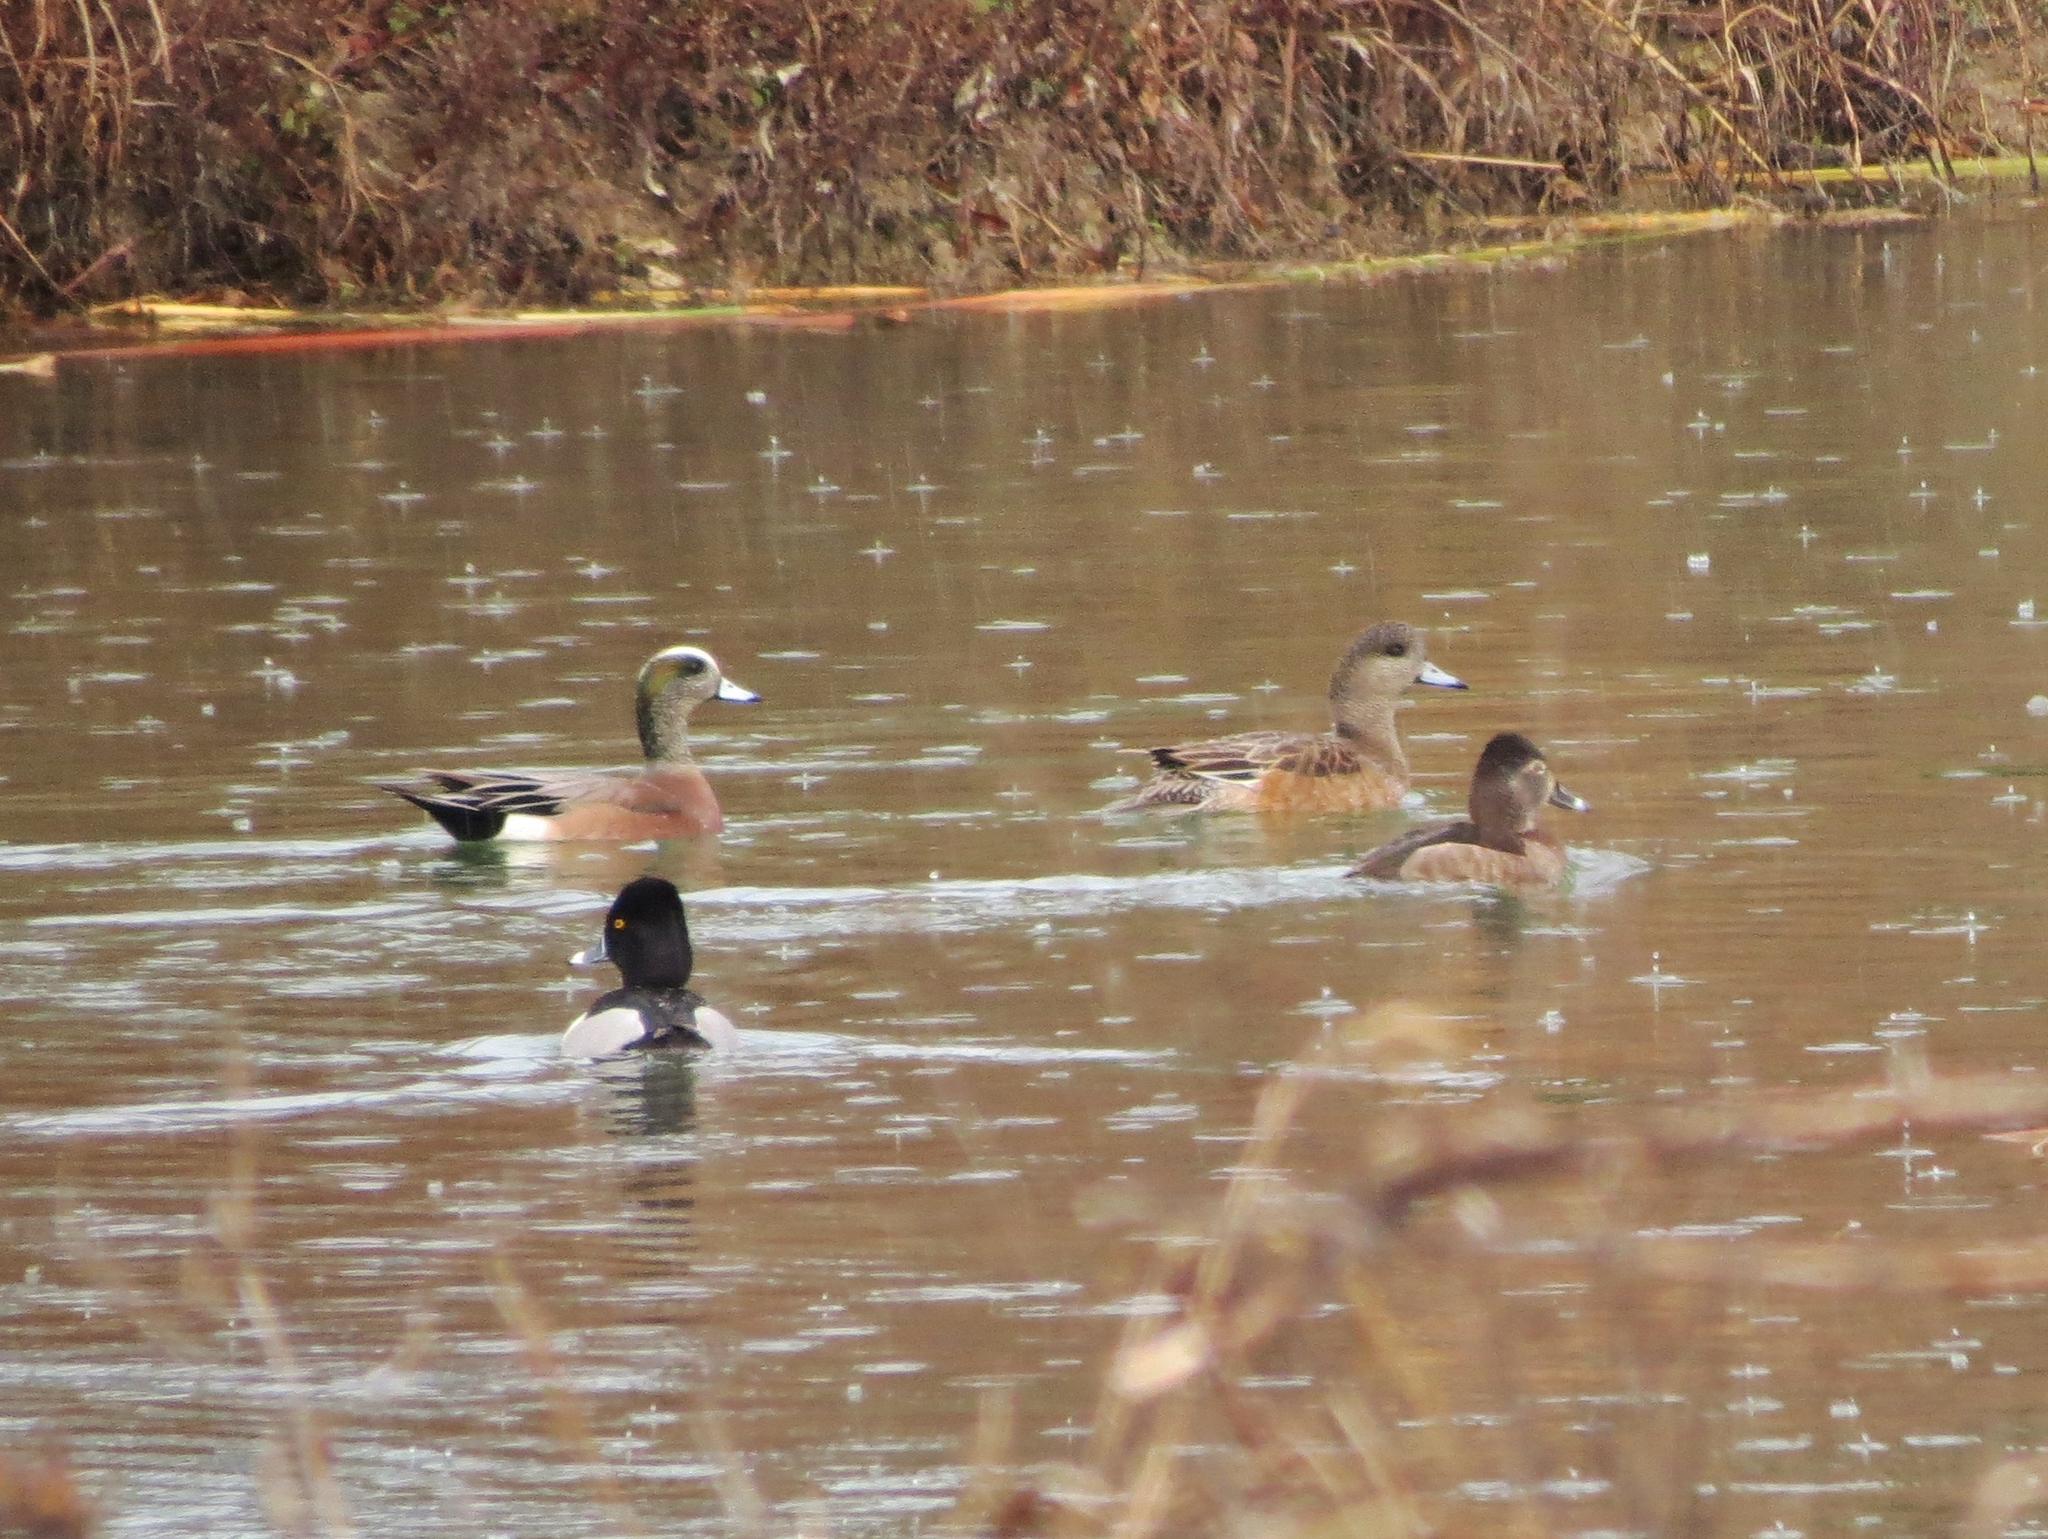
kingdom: Animalia
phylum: Chordata
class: Aves
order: Anseriformes
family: Anatidae
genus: Mareca
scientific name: Mareca americana
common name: American wigeon
